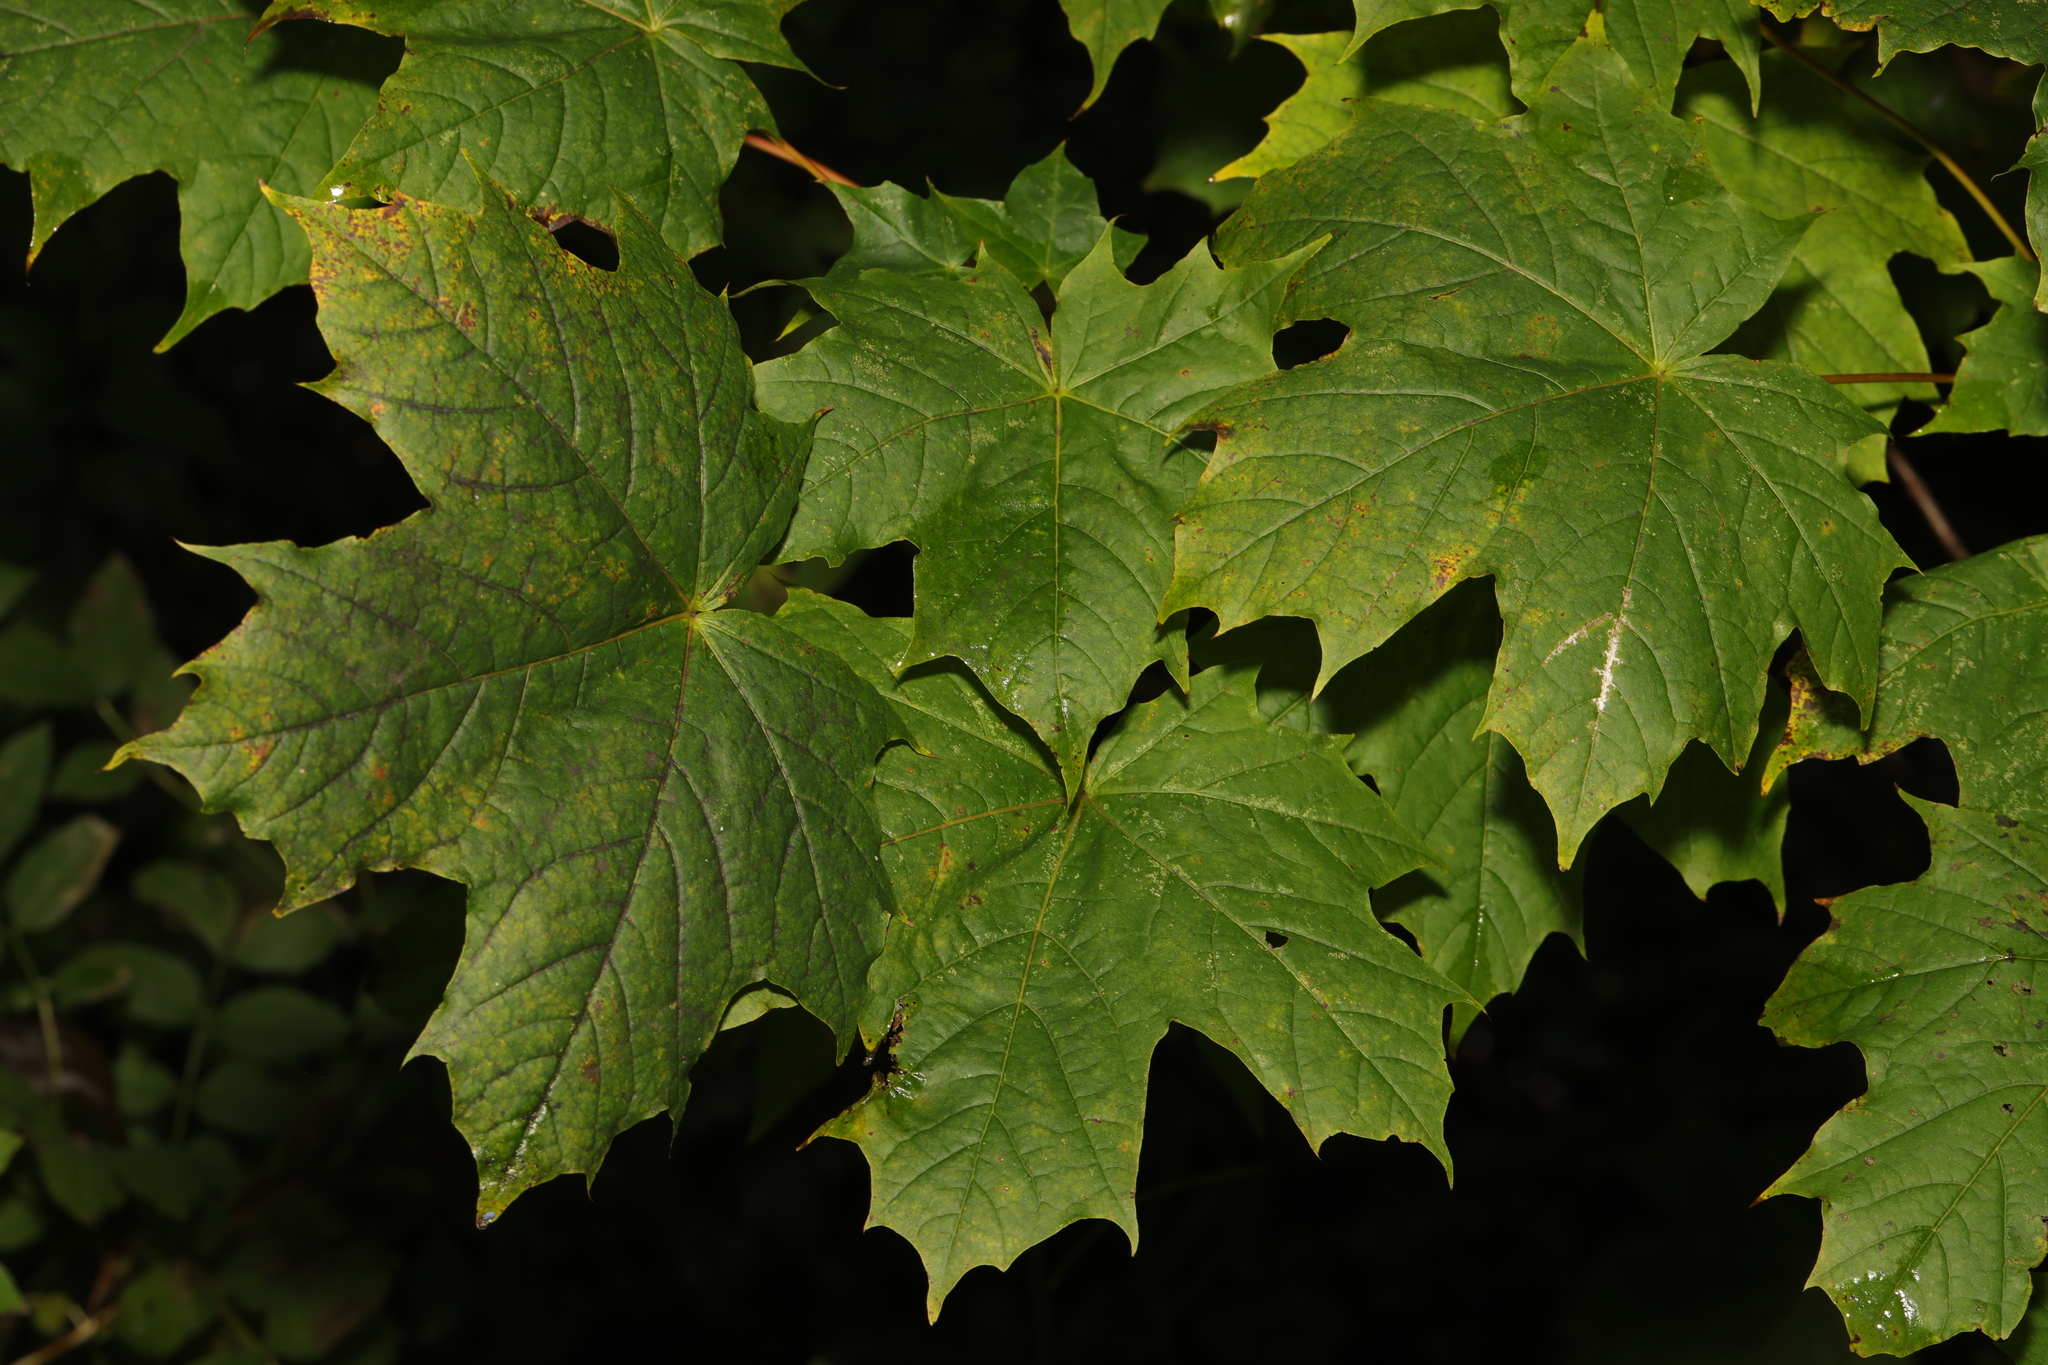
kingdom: Plantae
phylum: Tracheophyta
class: Magnoliopsida
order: Sapindales
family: Sapindaceae
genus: Acer
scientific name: Acer platanoides
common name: Norway maple
